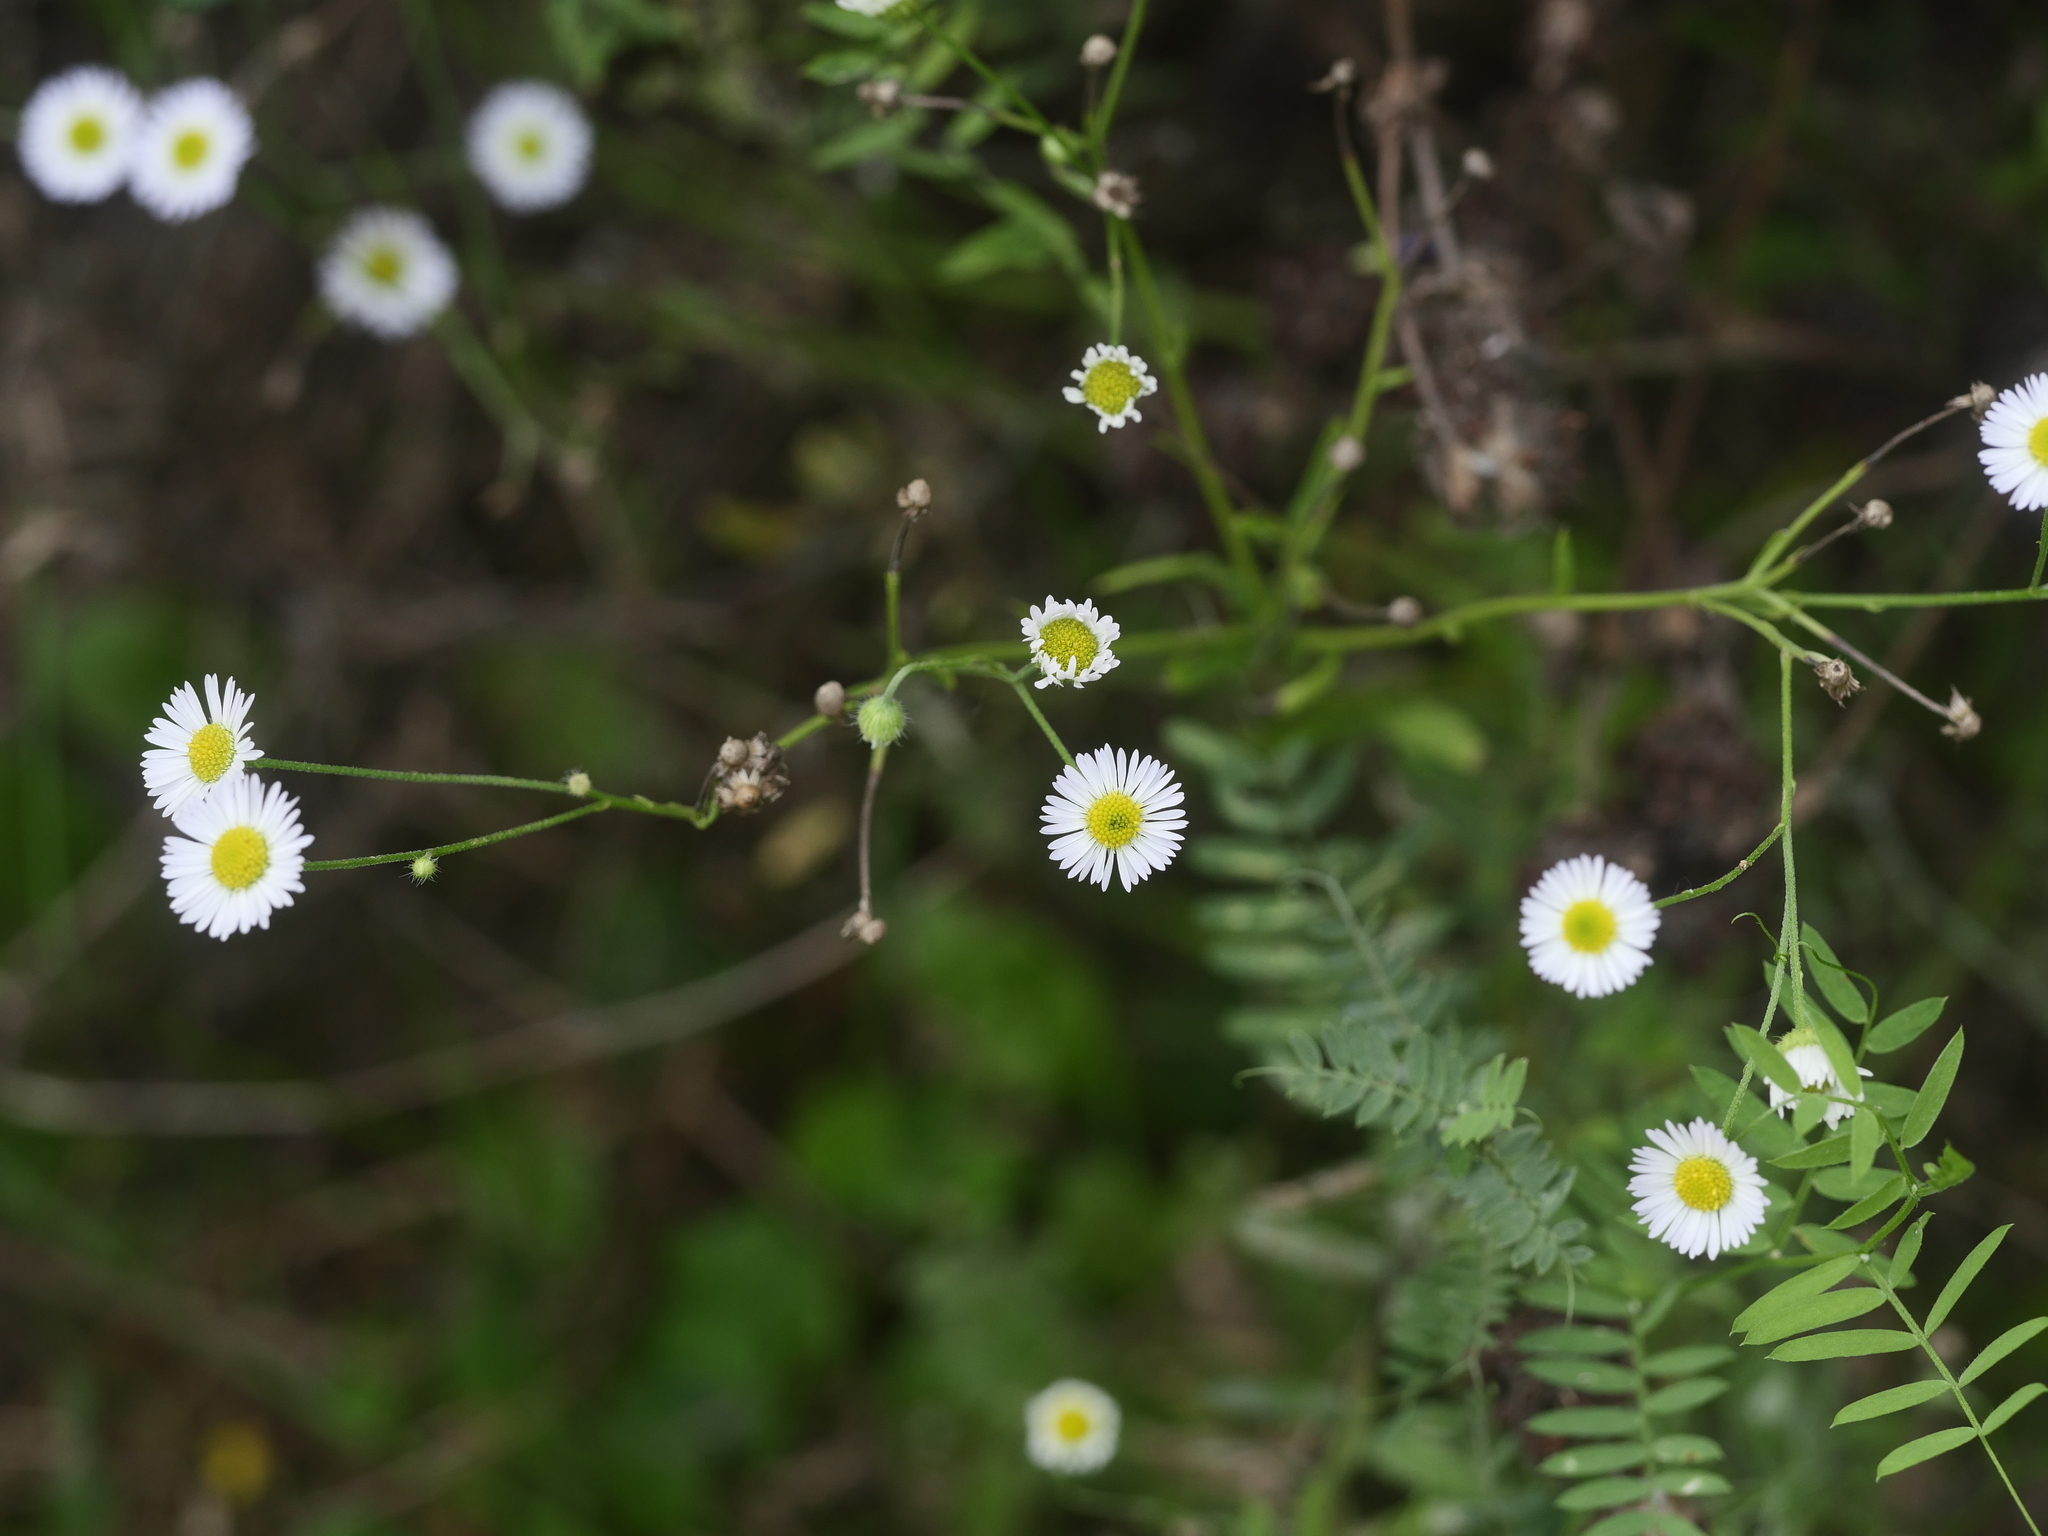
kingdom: Plantae
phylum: Tracheophyta
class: Magnoliopsida
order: Asterales
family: Asteraceae
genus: Erigeron
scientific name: Erigeron strigosus
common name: Common eastern fleabane
